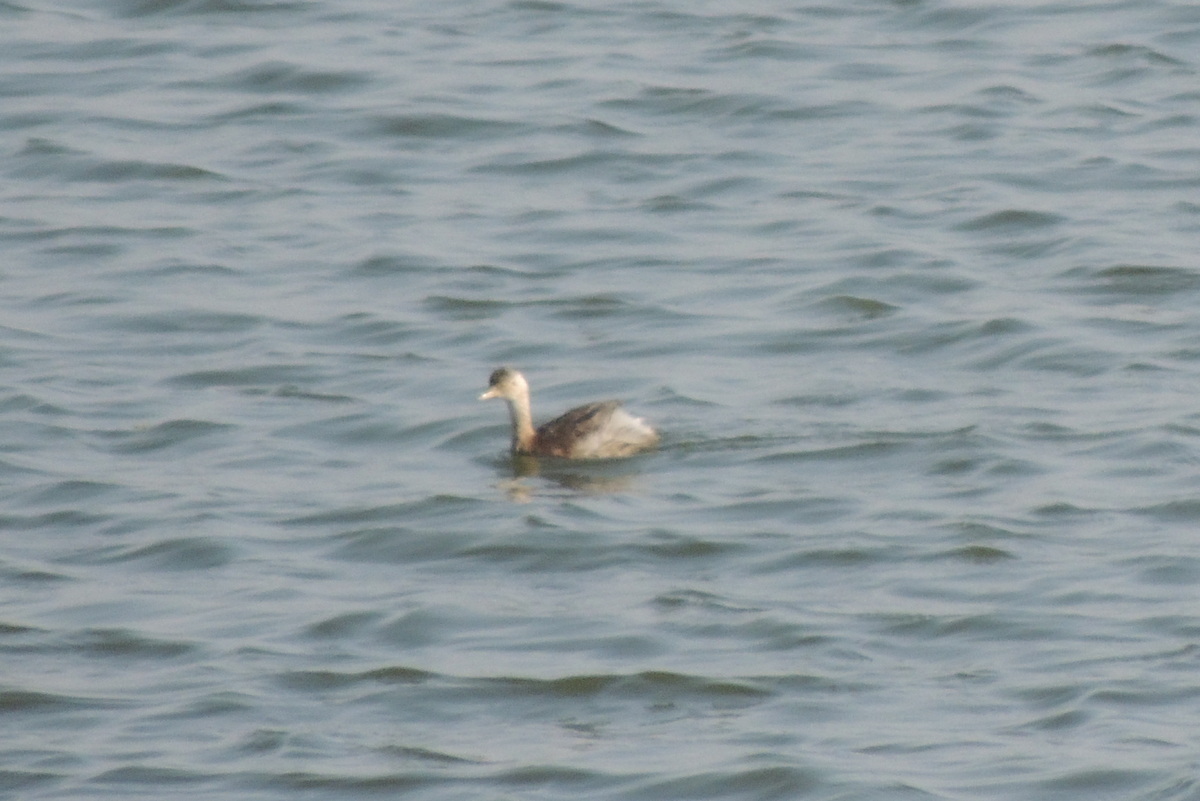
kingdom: Animalia
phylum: Chordata
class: Aves
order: Podicipediformes
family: Podicipedidae
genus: Tachybaptus
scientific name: Tachybaptus ruficollis
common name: Little grebe
